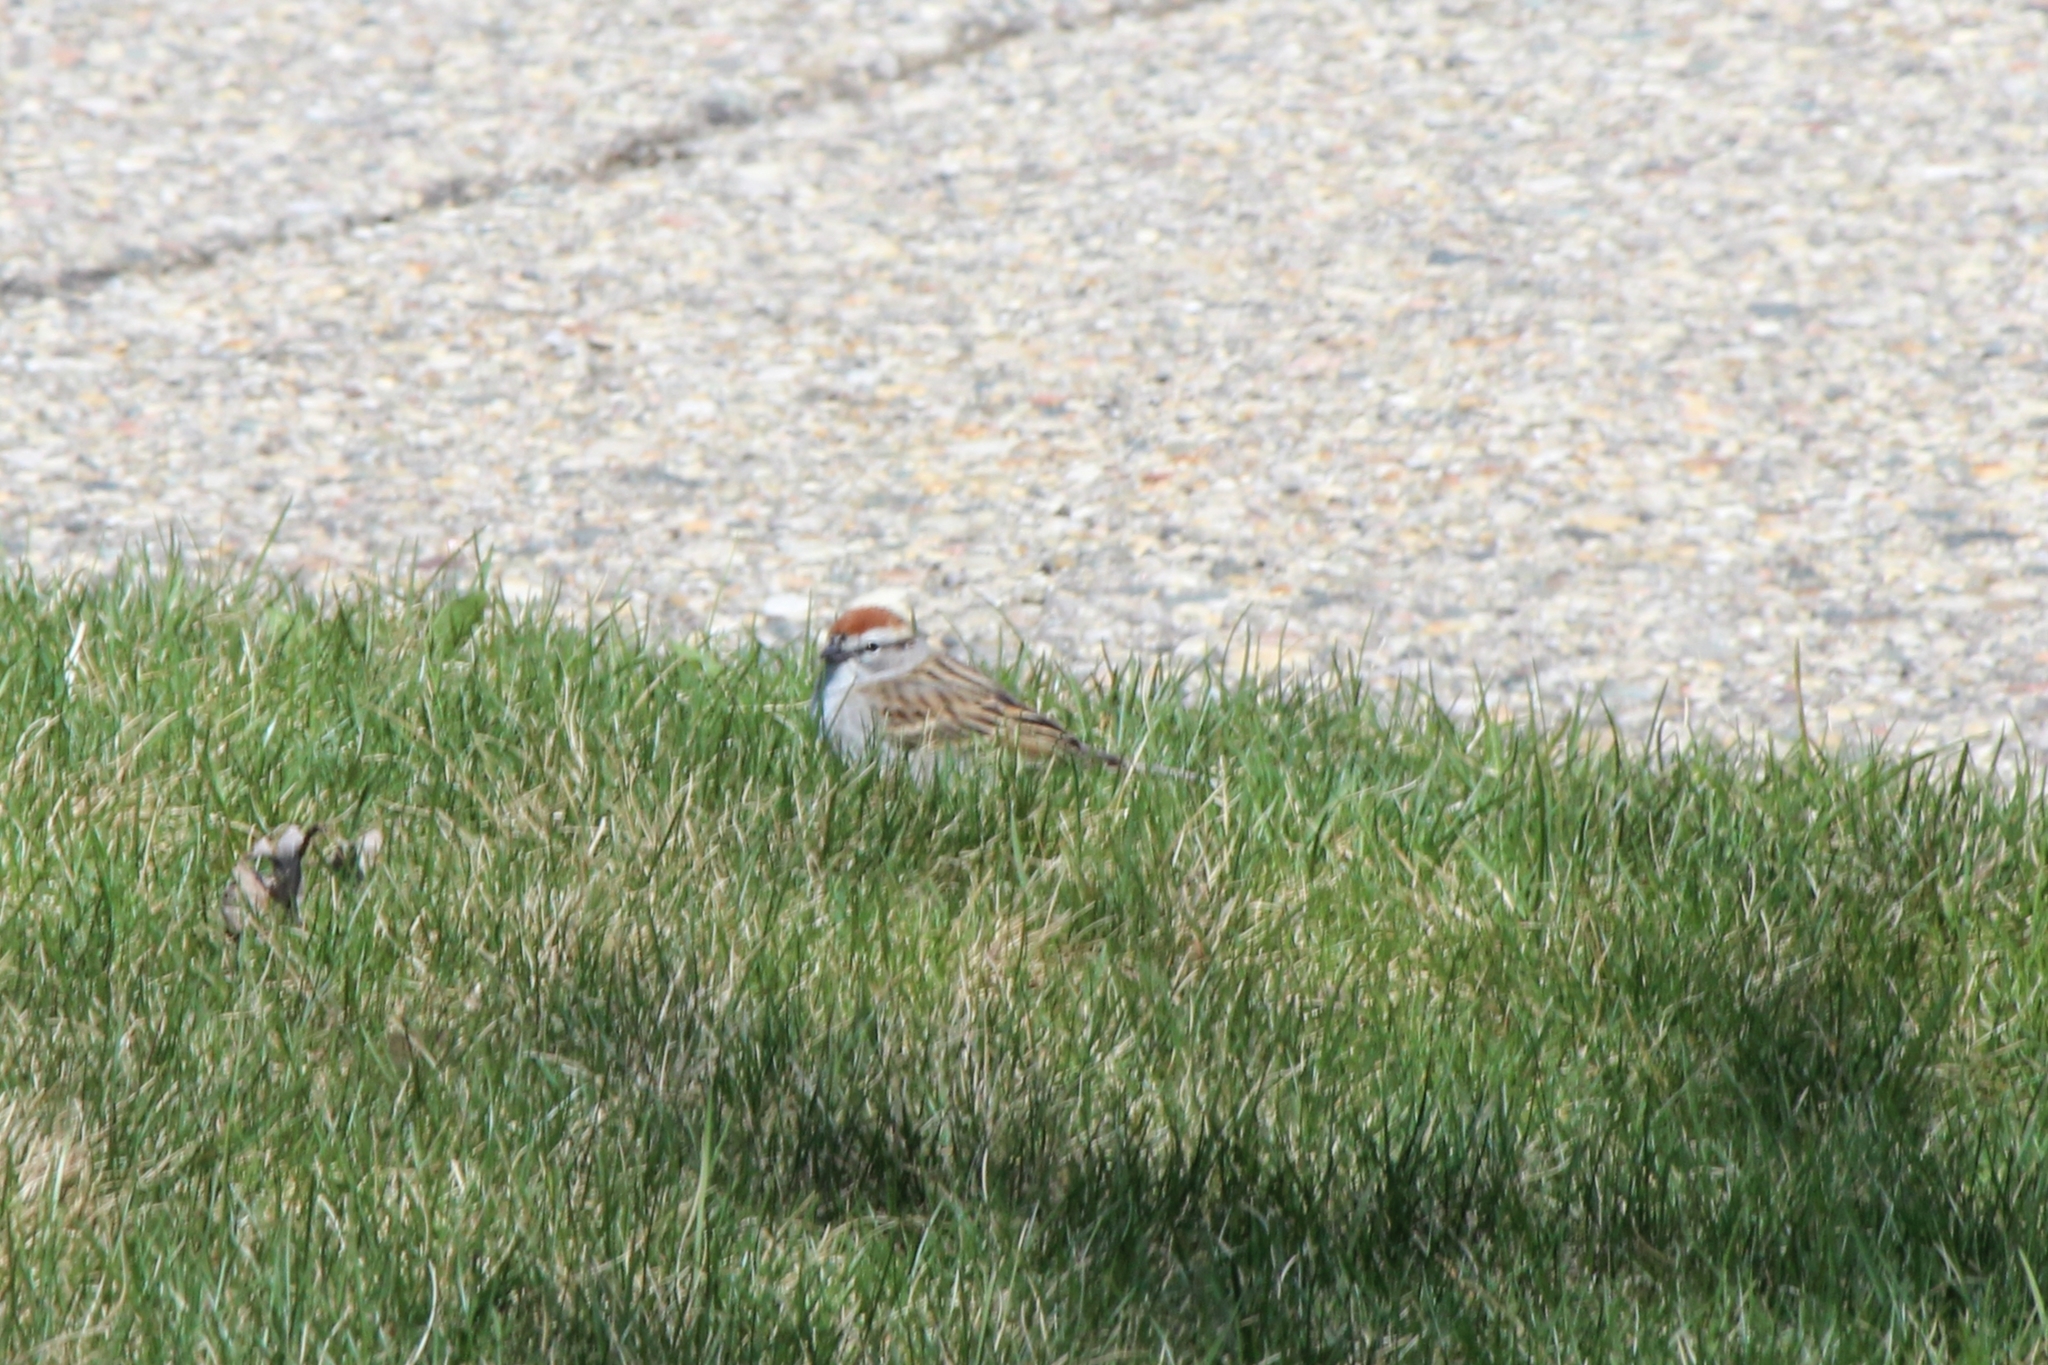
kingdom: Animalia
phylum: Chordata
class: Aves
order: Passeriformes
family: Passerellidae
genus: Spizella
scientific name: Spizella passerina
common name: Chipping sparrow
